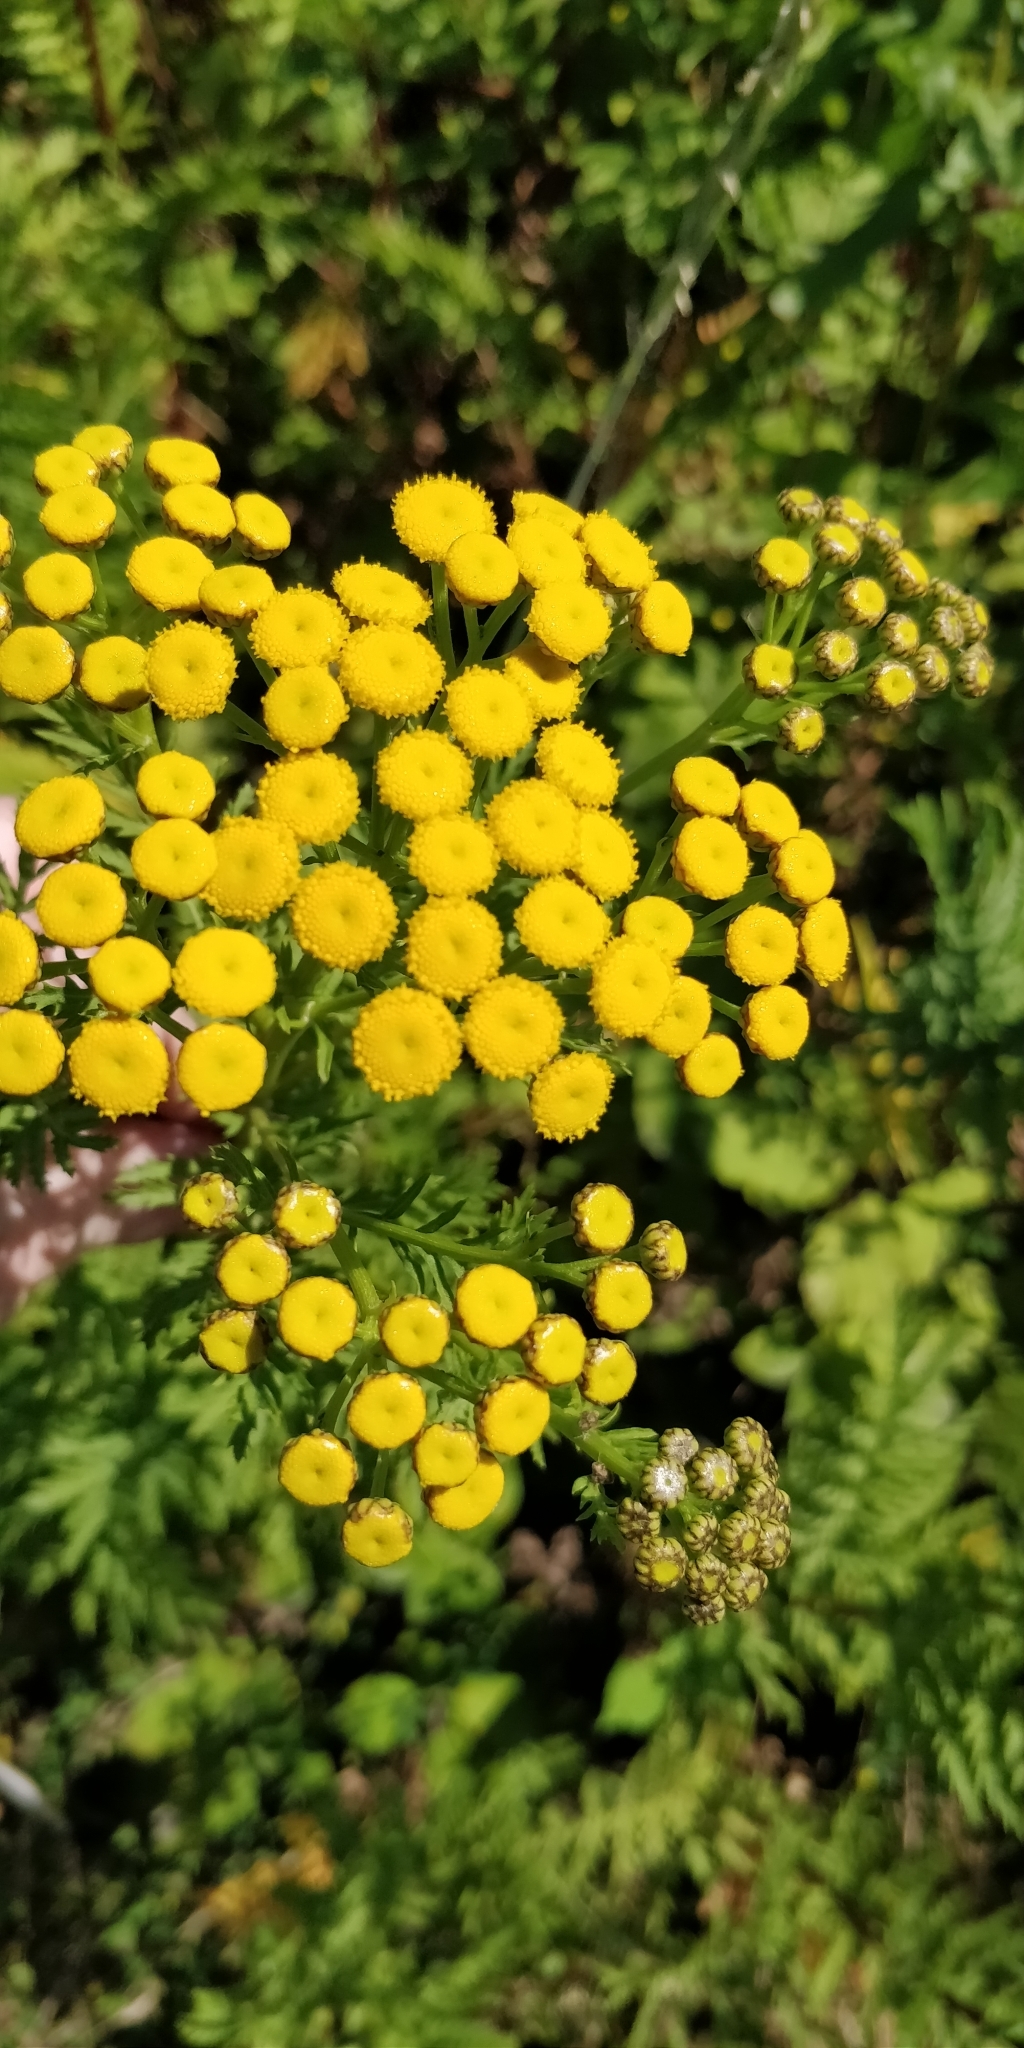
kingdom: Plantae
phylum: Tracheophyta
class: Magnoliopsida
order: Asterales
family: Asteraceae
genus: Tanacetum
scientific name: Tanacetum vulgare
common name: Common tansy
